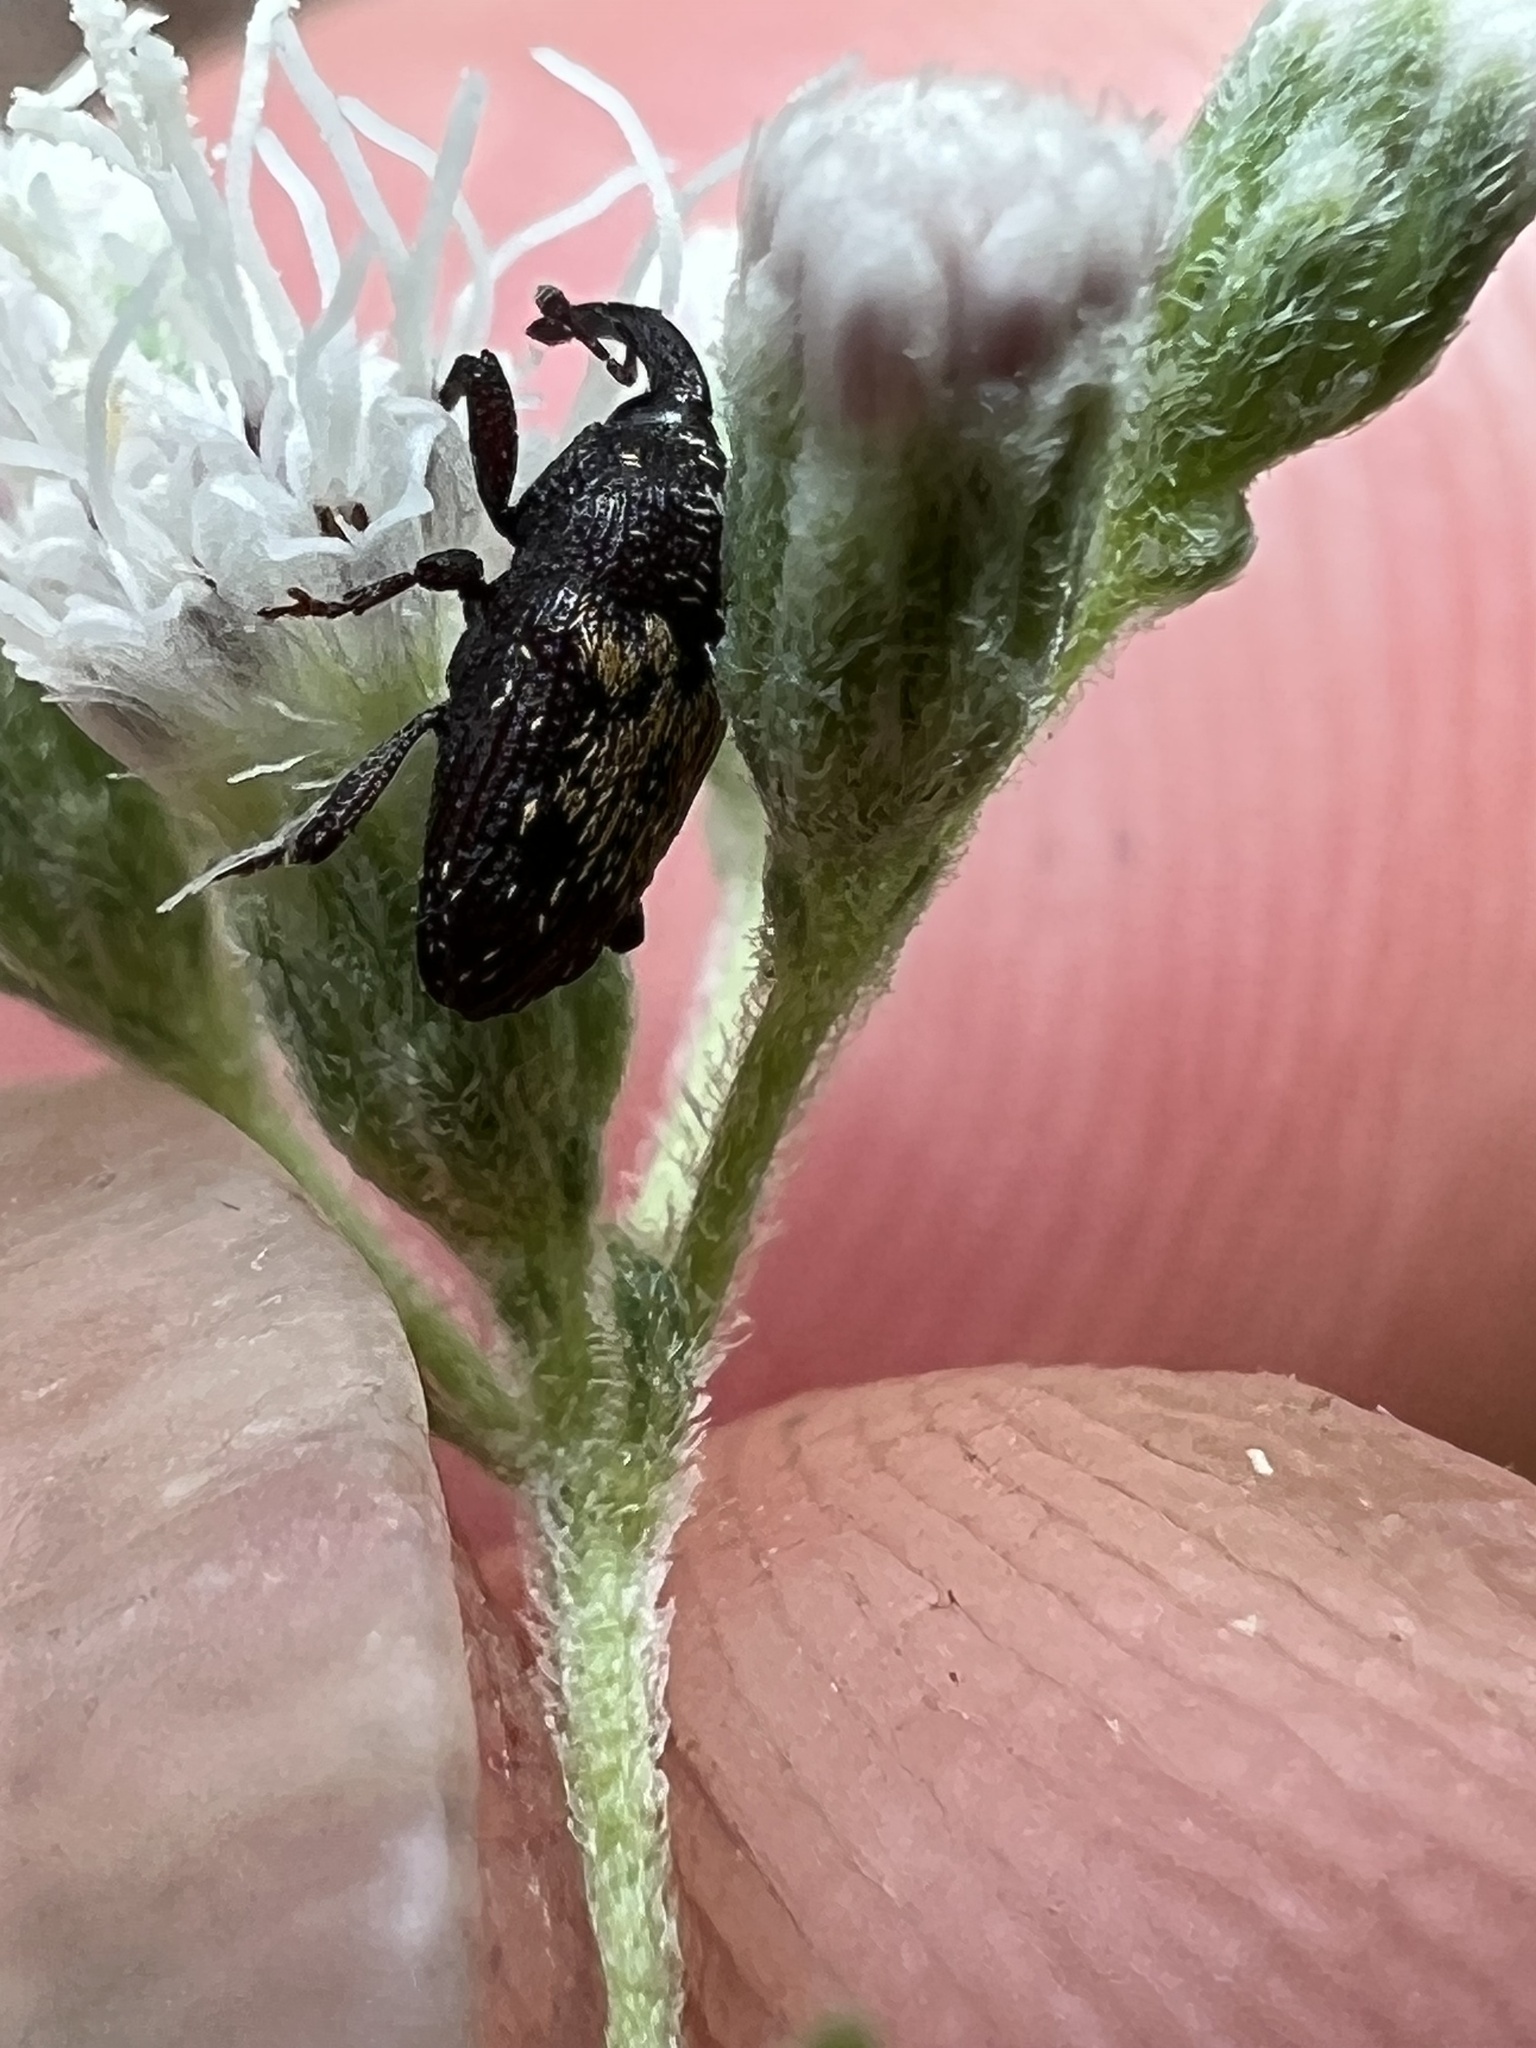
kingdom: Animalia
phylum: Arthropoda
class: Insecta
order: Coleoptera
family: Curculionidae
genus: Glyptobaris
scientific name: Glyptobaris lecontei
